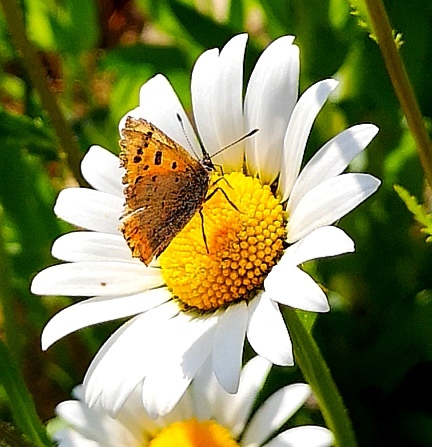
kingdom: Animalia
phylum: Arthropoda
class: Insecta
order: Lepidoptera
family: Lycaenidae
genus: Lycaena
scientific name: Lycaena phlaeas
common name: Small copper
